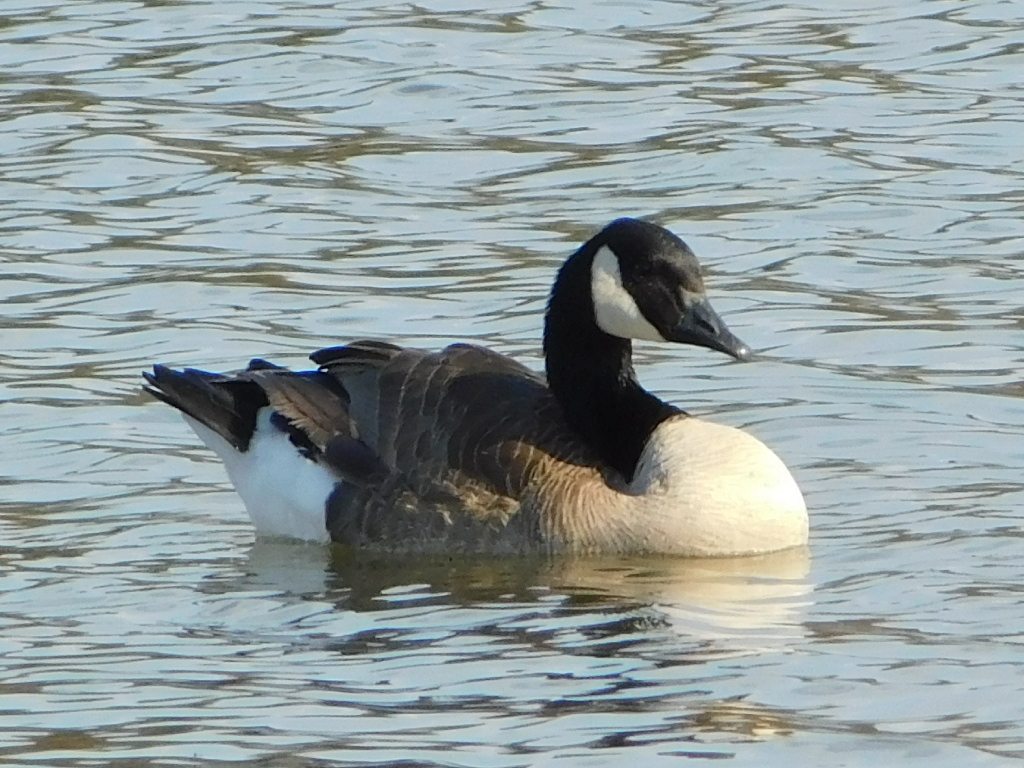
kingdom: Animalia
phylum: Chordata
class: Aves
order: Anseriformes
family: Anatidae
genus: Branta
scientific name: Branta canadensis
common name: Canada goose
